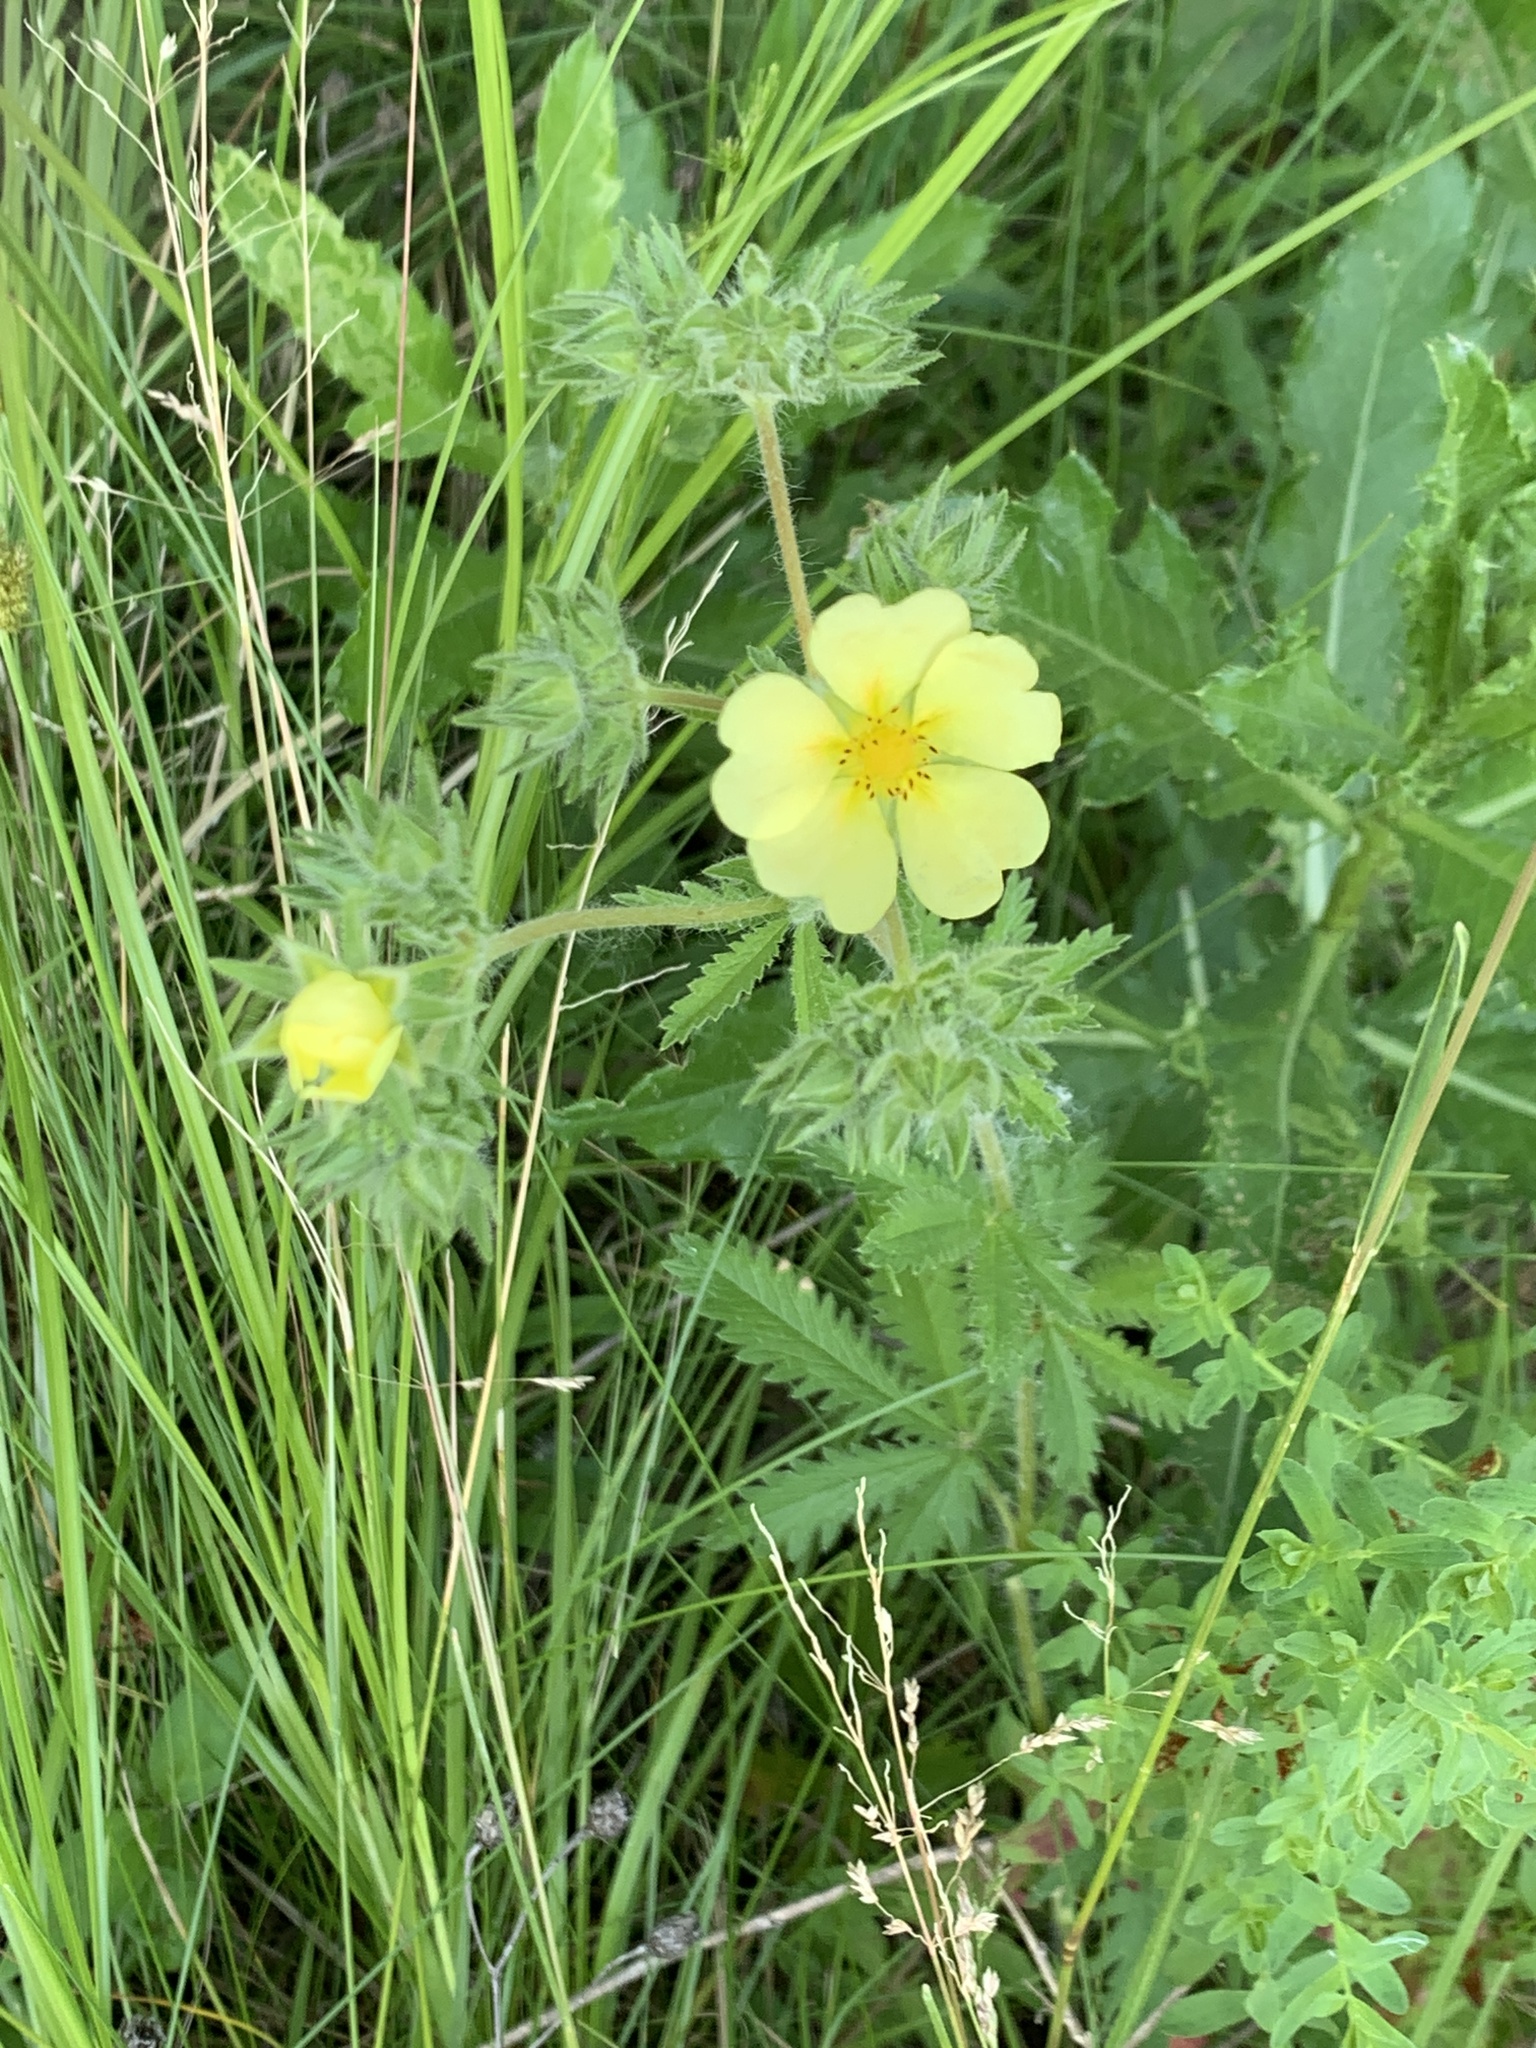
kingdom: Plantae
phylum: Tracheophyta
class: Magnoliopsida
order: Rosales
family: Rosaceae
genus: Potentilla
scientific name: Potentilla recta
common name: Sulphur cinquefoil
